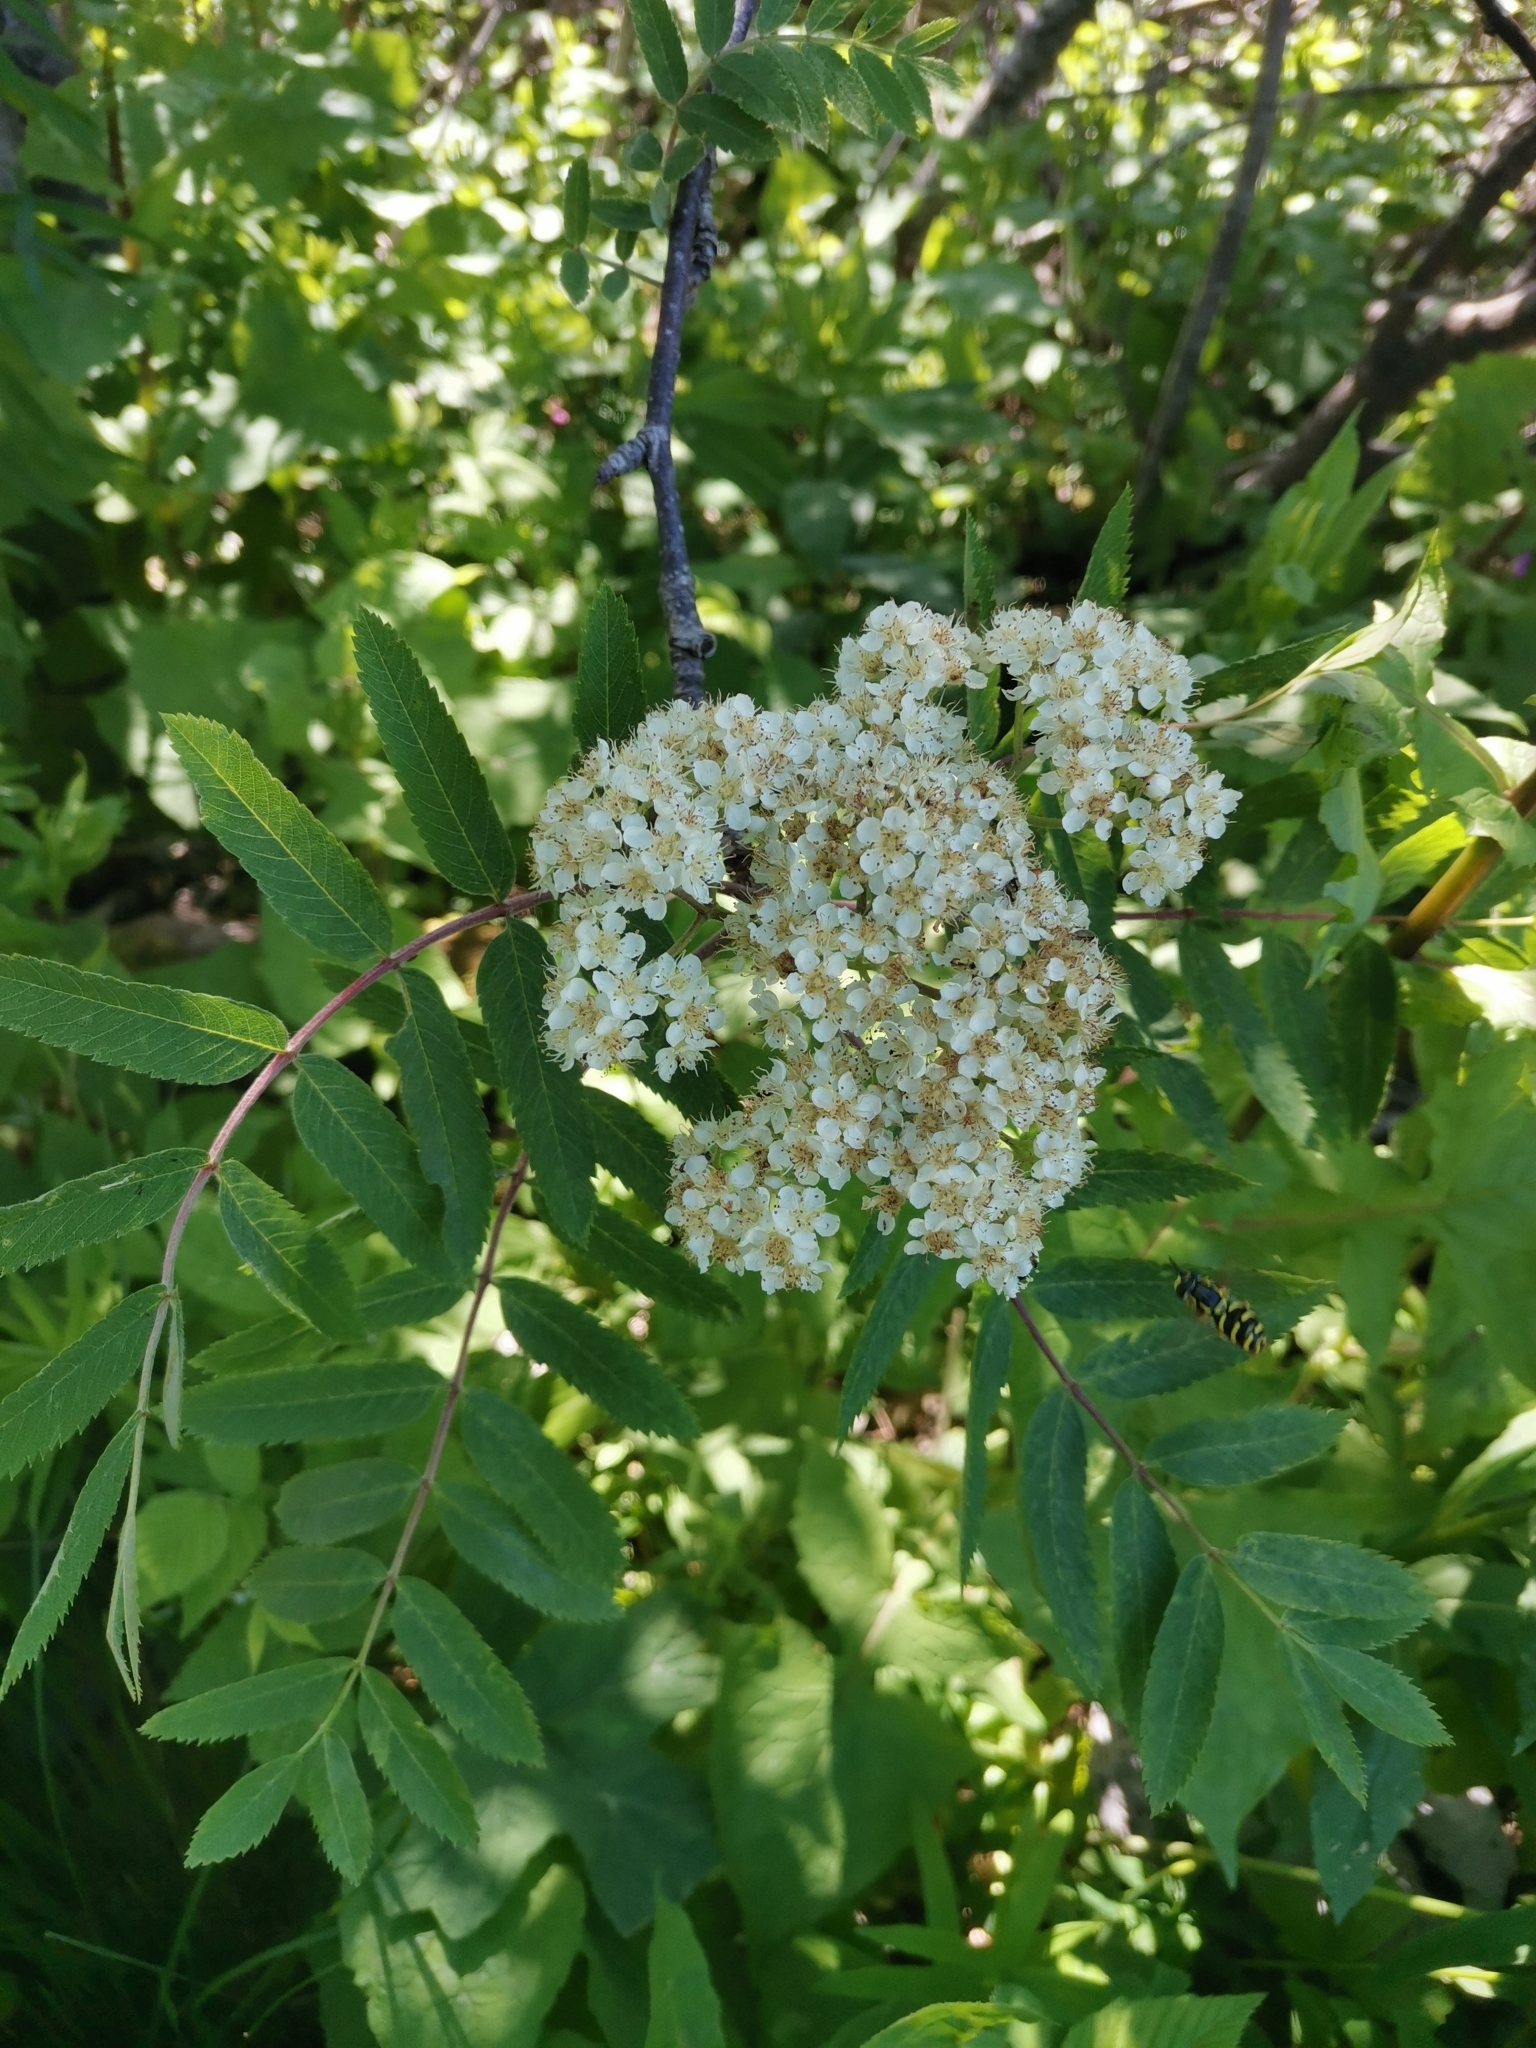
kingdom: Plantae
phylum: Tracheophyta
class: Magnoliopsida
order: Rosales
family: Rosaceae
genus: Sorbus
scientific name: Sorbus aucuparia
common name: Rowan
